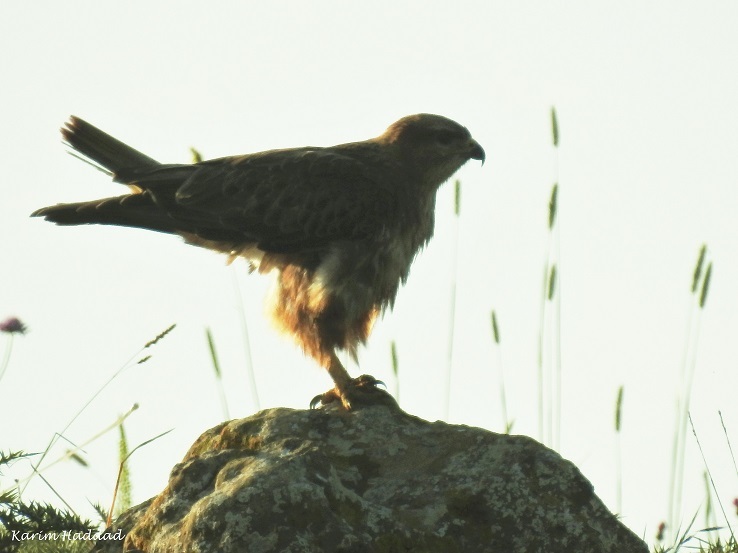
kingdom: Animalia
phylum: Chordata
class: Aves
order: Accipitriformes
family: Accipitridae
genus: Buteo
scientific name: Buteo rufinus
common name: Long-legged buzzard
